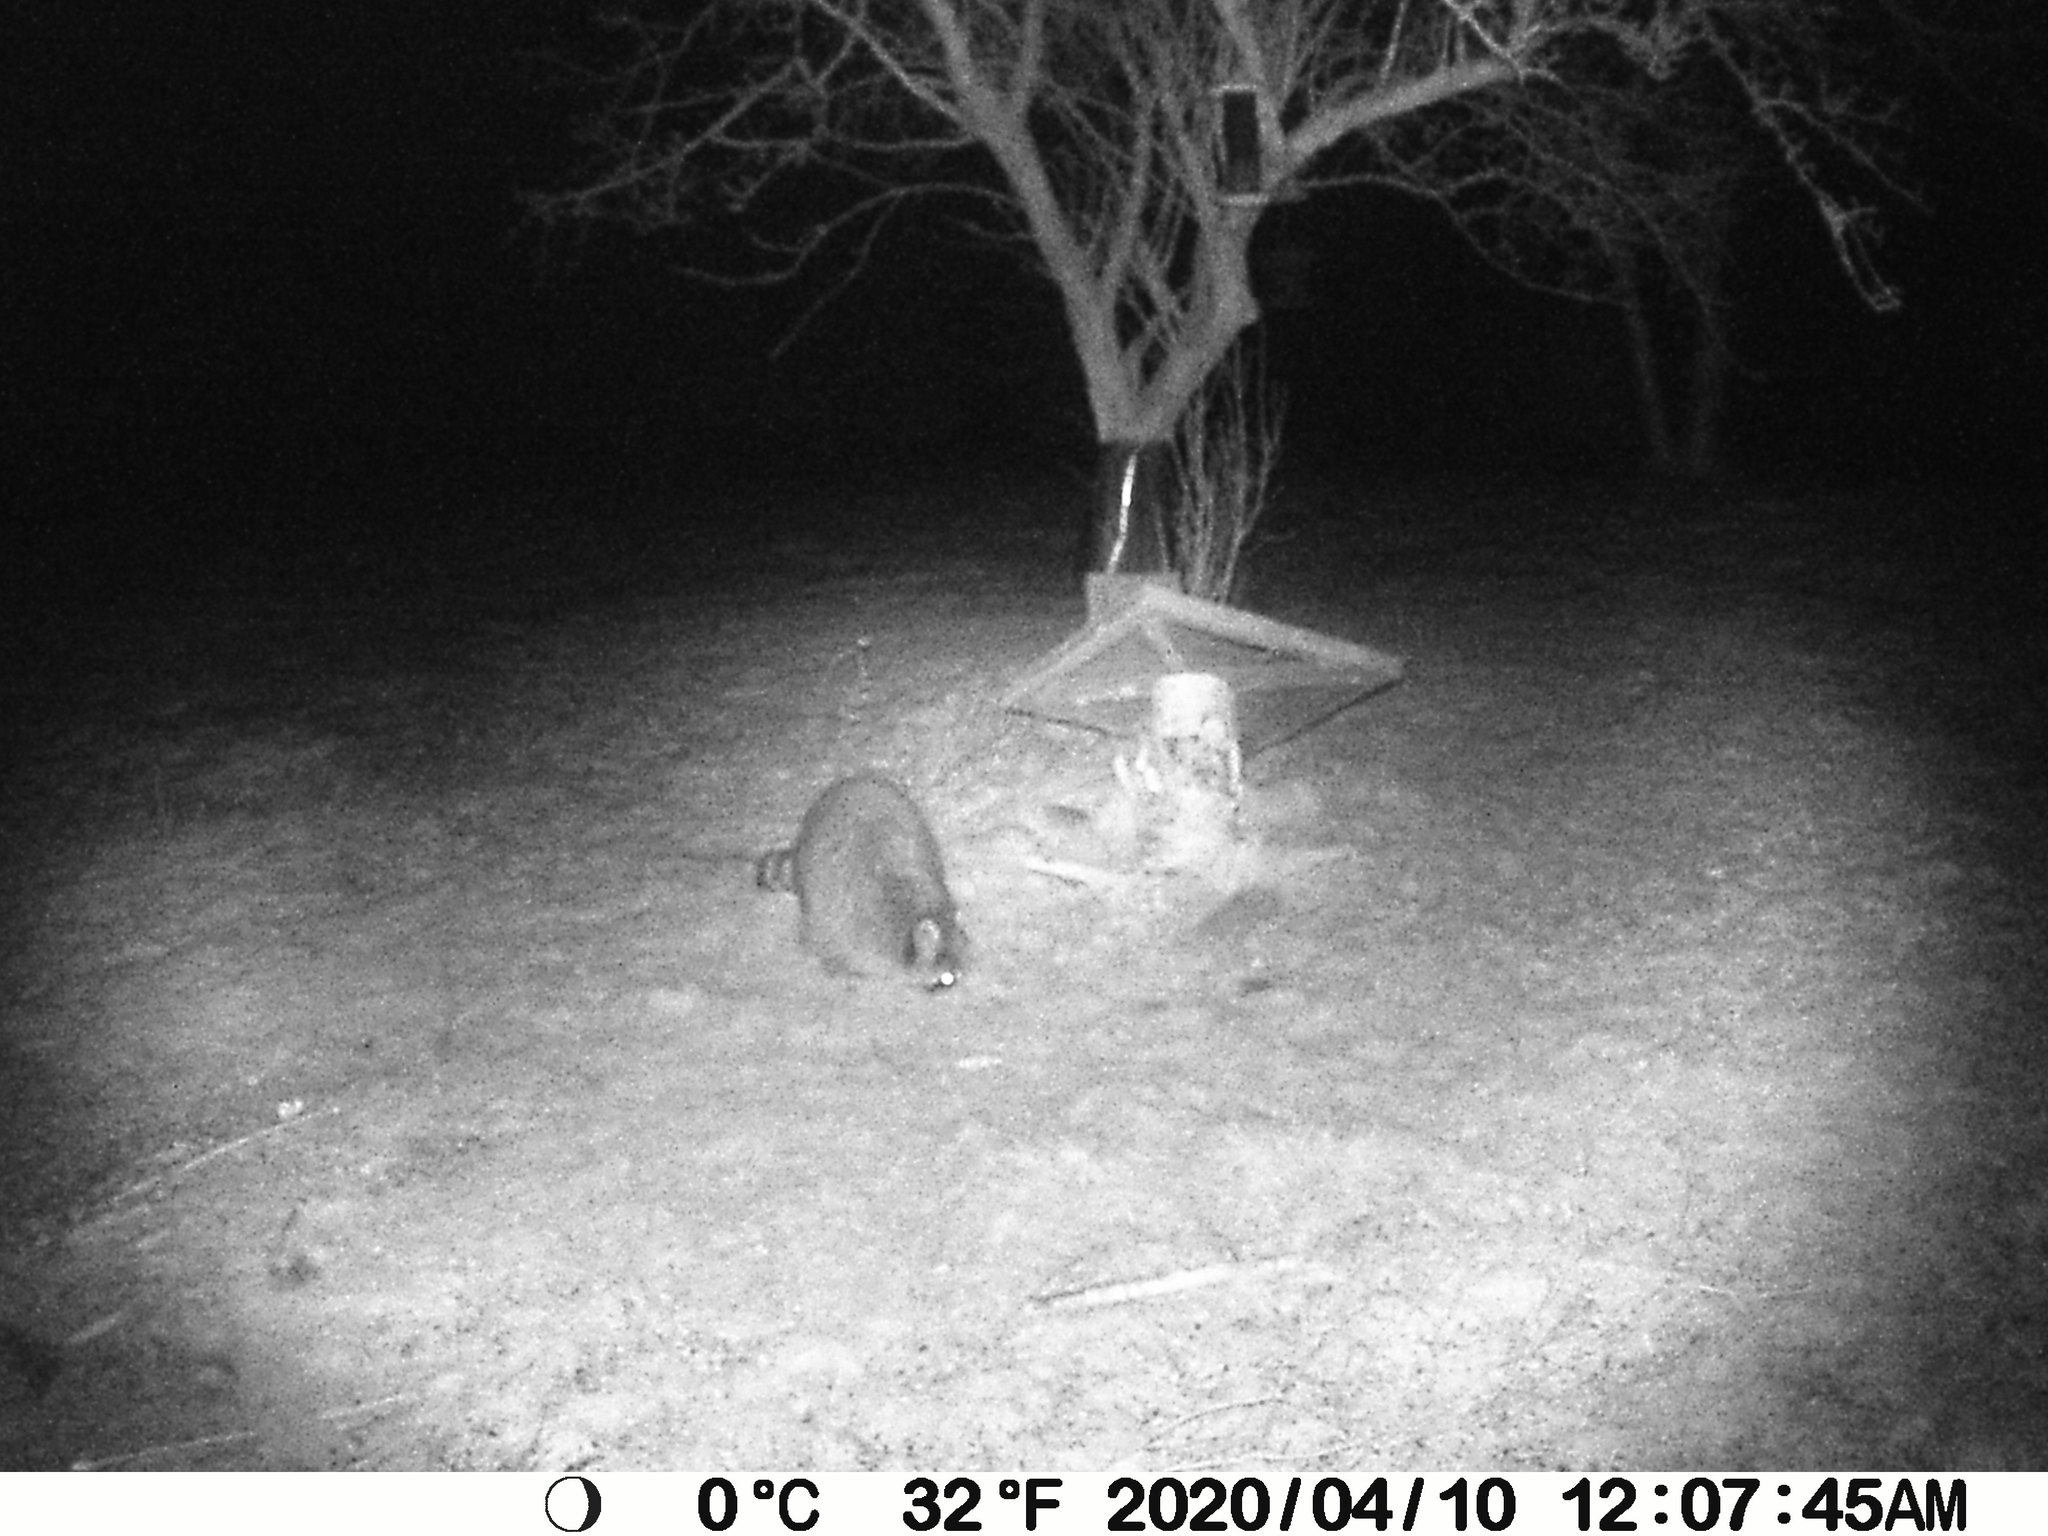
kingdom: Animalia
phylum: Chordata
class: Mammalia
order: Carnivora
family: Procyonidae
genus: Procyon
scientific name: Procyon lotor
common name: Raccoon
